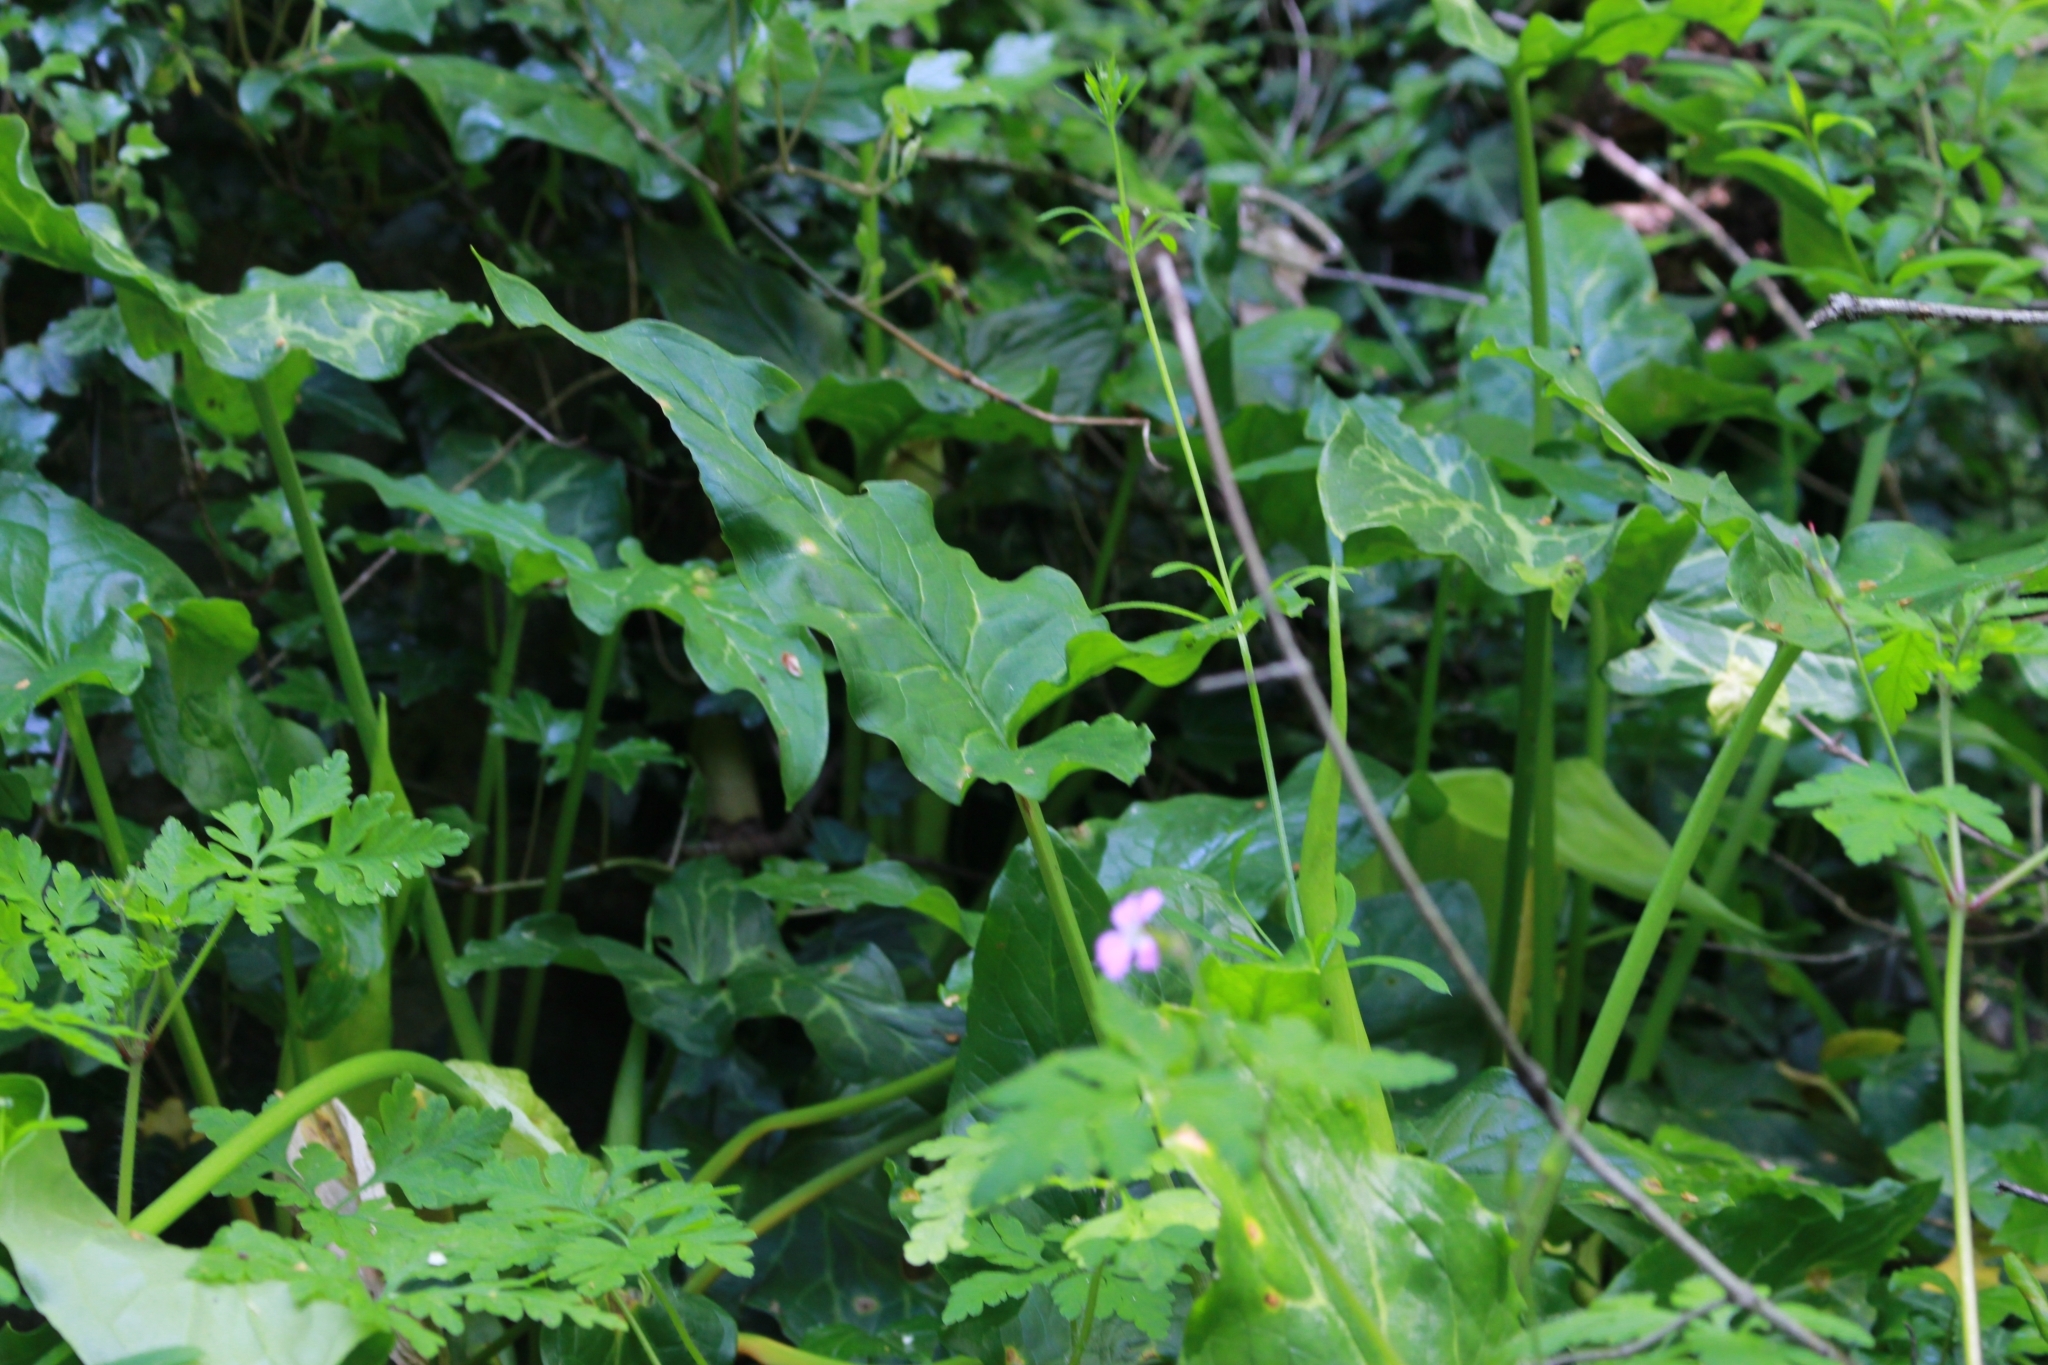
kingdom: Plantae
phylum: Tracheophyta
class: Liliopsida
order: Alismatales
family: Araceae
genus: Arum
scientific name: Arum italicum
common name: Italian lords-and-ladies
